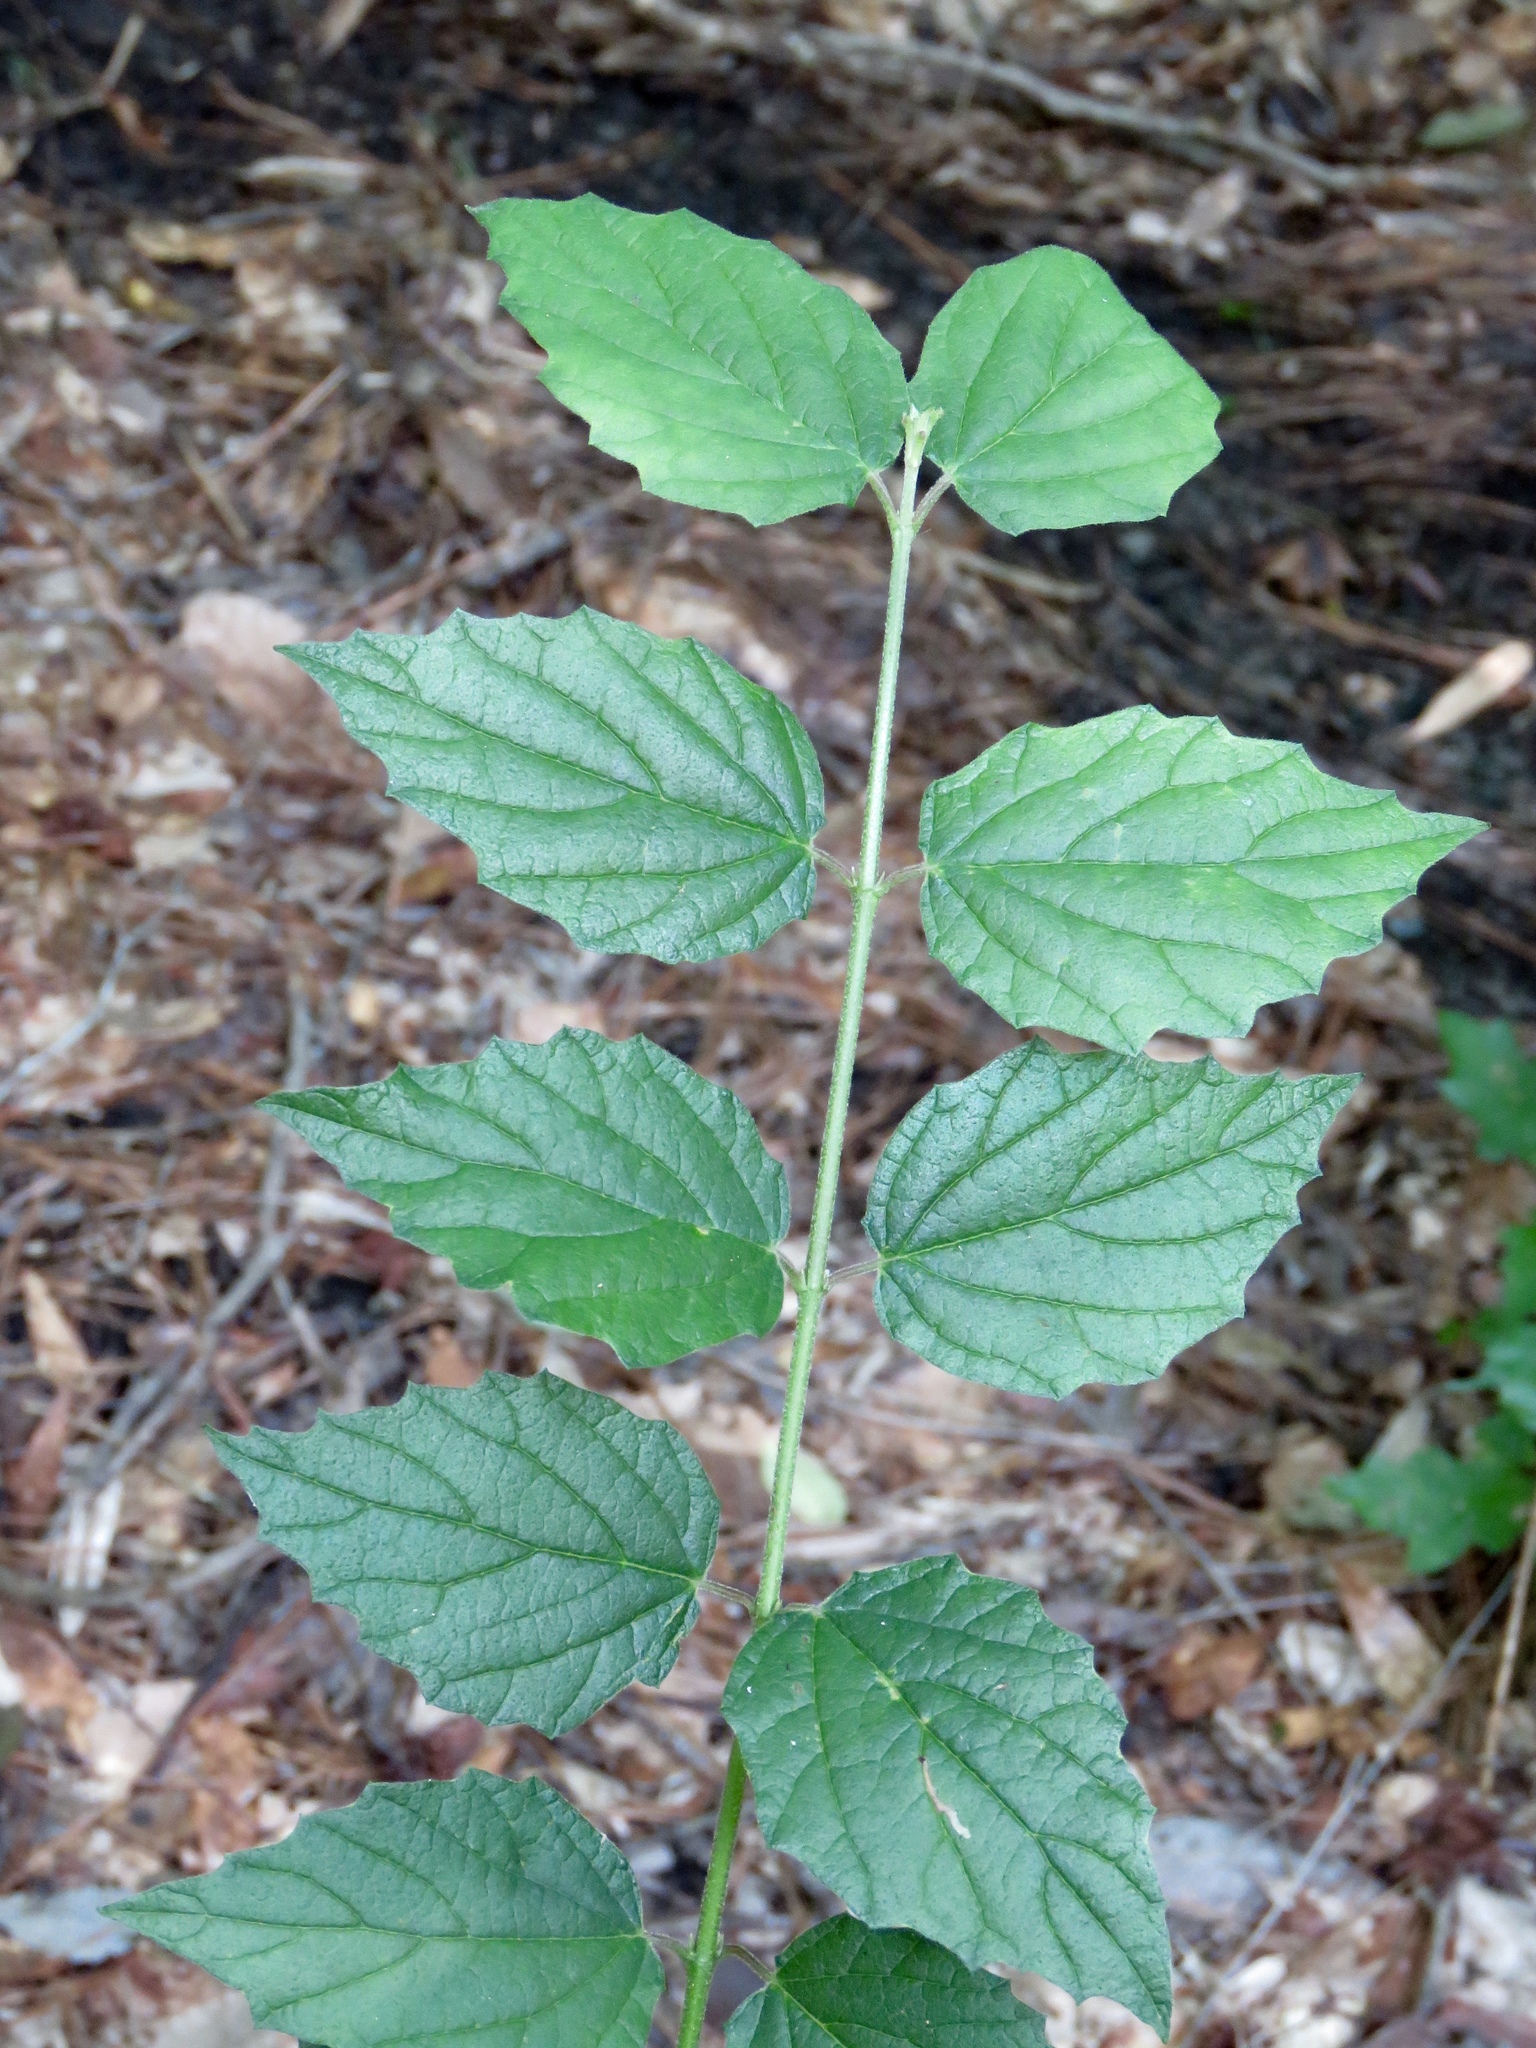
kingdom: Plantae
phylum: Tracheophyta
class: Magnoliopsida
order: Dipsacales
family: Viburnaceae
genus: Viburnum
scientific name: Viburnum scabrellum
